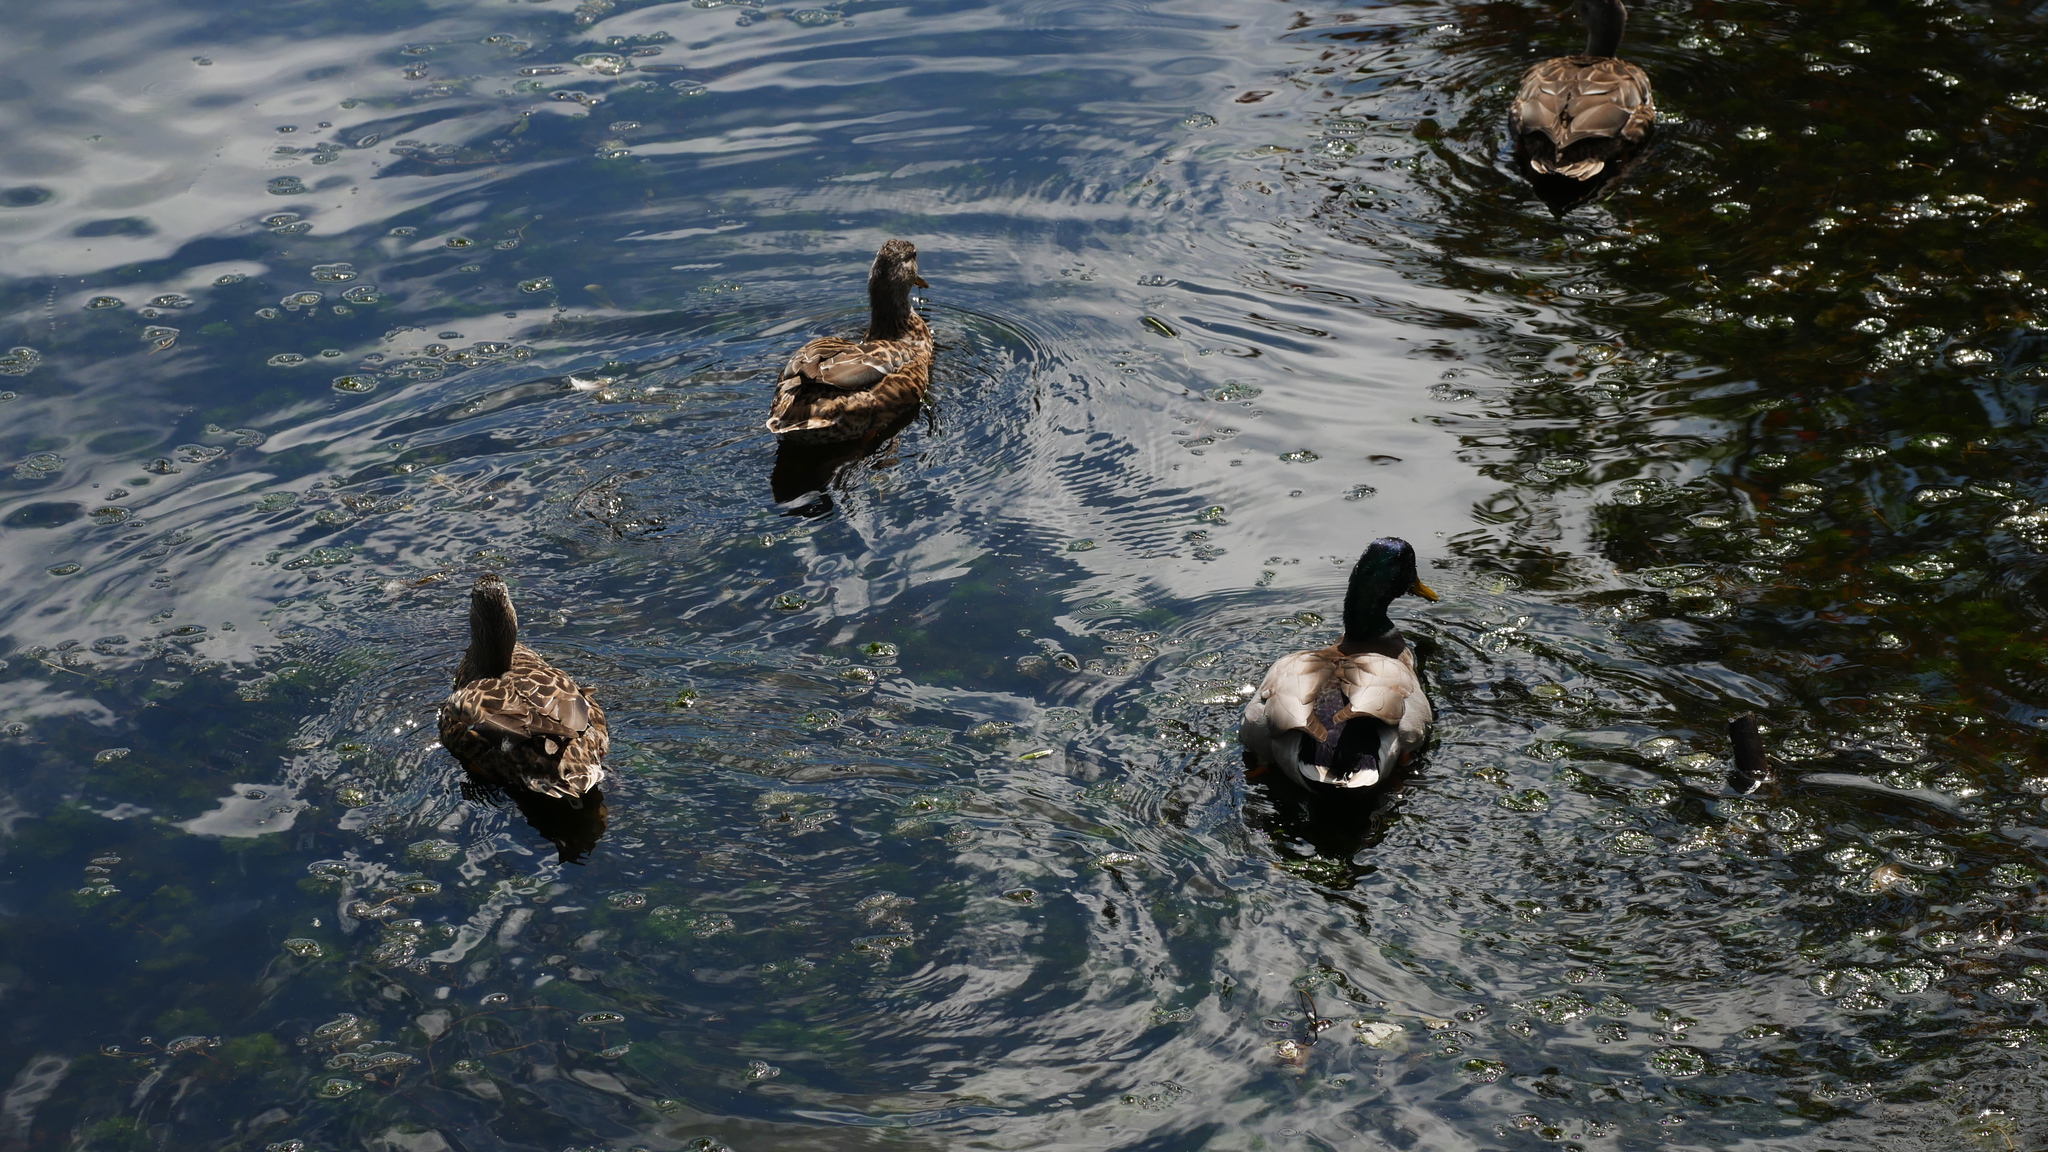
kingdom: Animalia
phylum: Chordata
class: Aves
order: Anseriformes
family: Anatidae
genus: Anas
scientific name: Anas platyrhynchos
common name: Mallard
